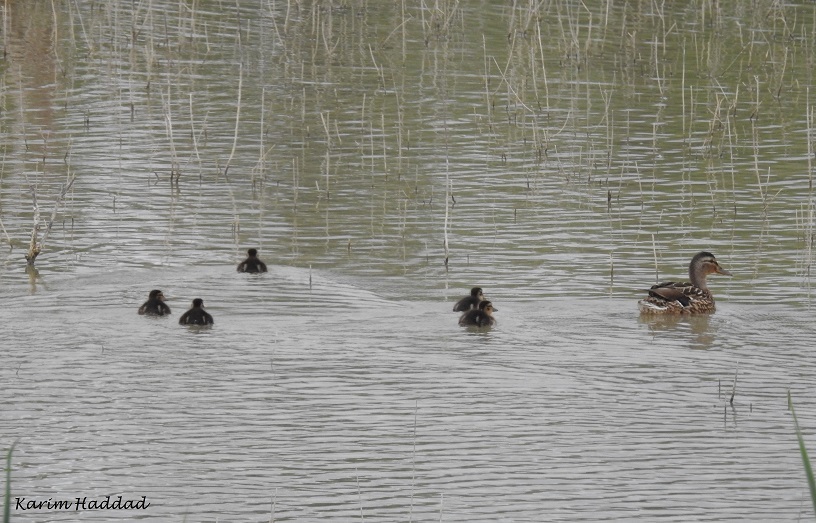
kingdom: Animalia
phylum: Chordata
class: Aves
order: Anseriformes
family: Anatidae
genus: Anas
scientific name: Anas platyrhynchos
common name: Mallard
